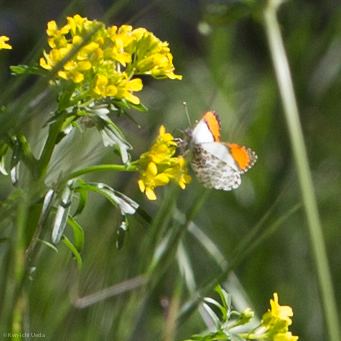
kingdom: Animalia
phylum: Arthropoda
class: Insecta
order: Lepidoptera
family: Pieridae
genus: Anthocharis
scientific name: Anthocharis sara
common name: Sara's orangetip
